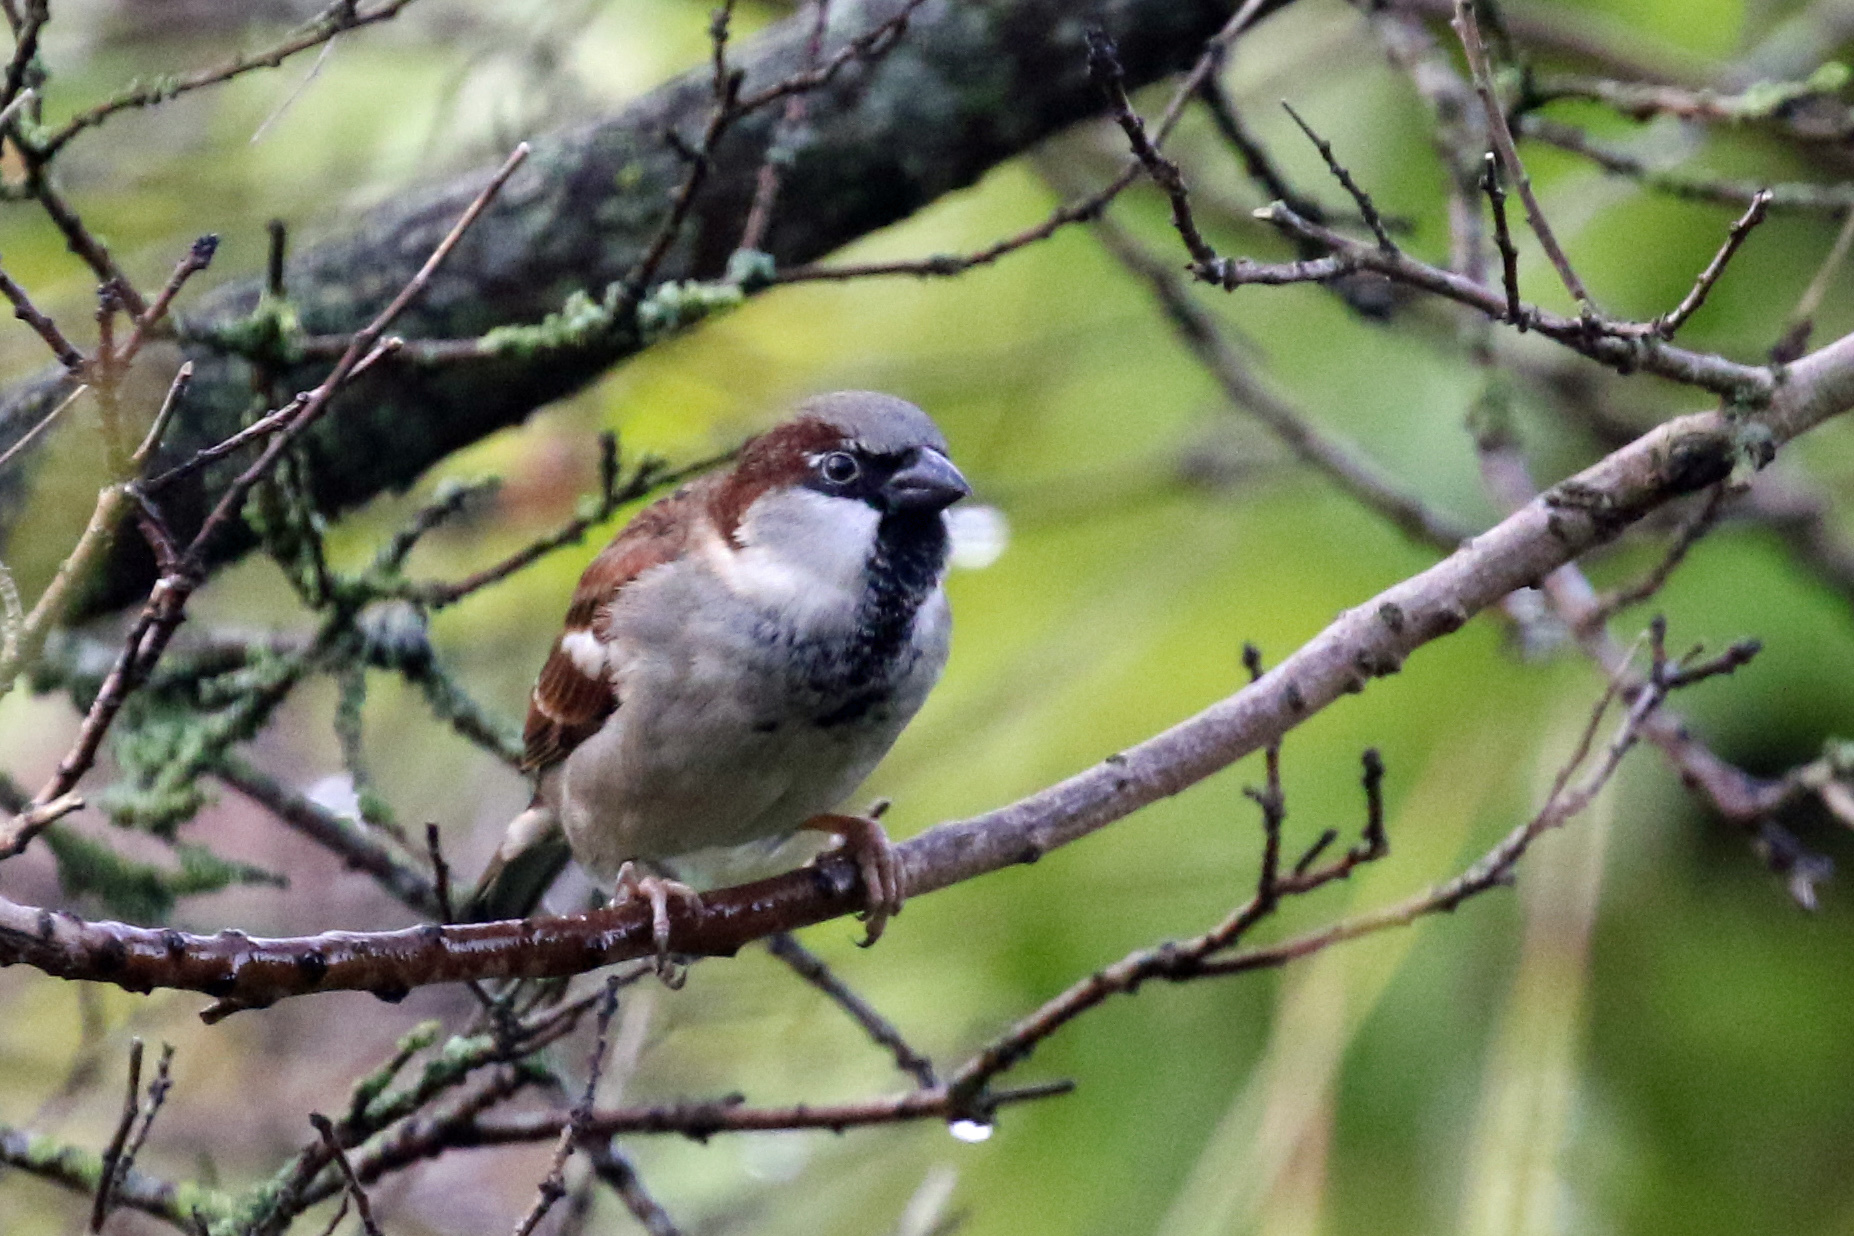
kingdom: Animalia
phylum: Chordata
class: Aves
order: Passeriformes
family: Passeridae
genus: Passer
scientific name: Passer domesticus
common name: House sparrow
